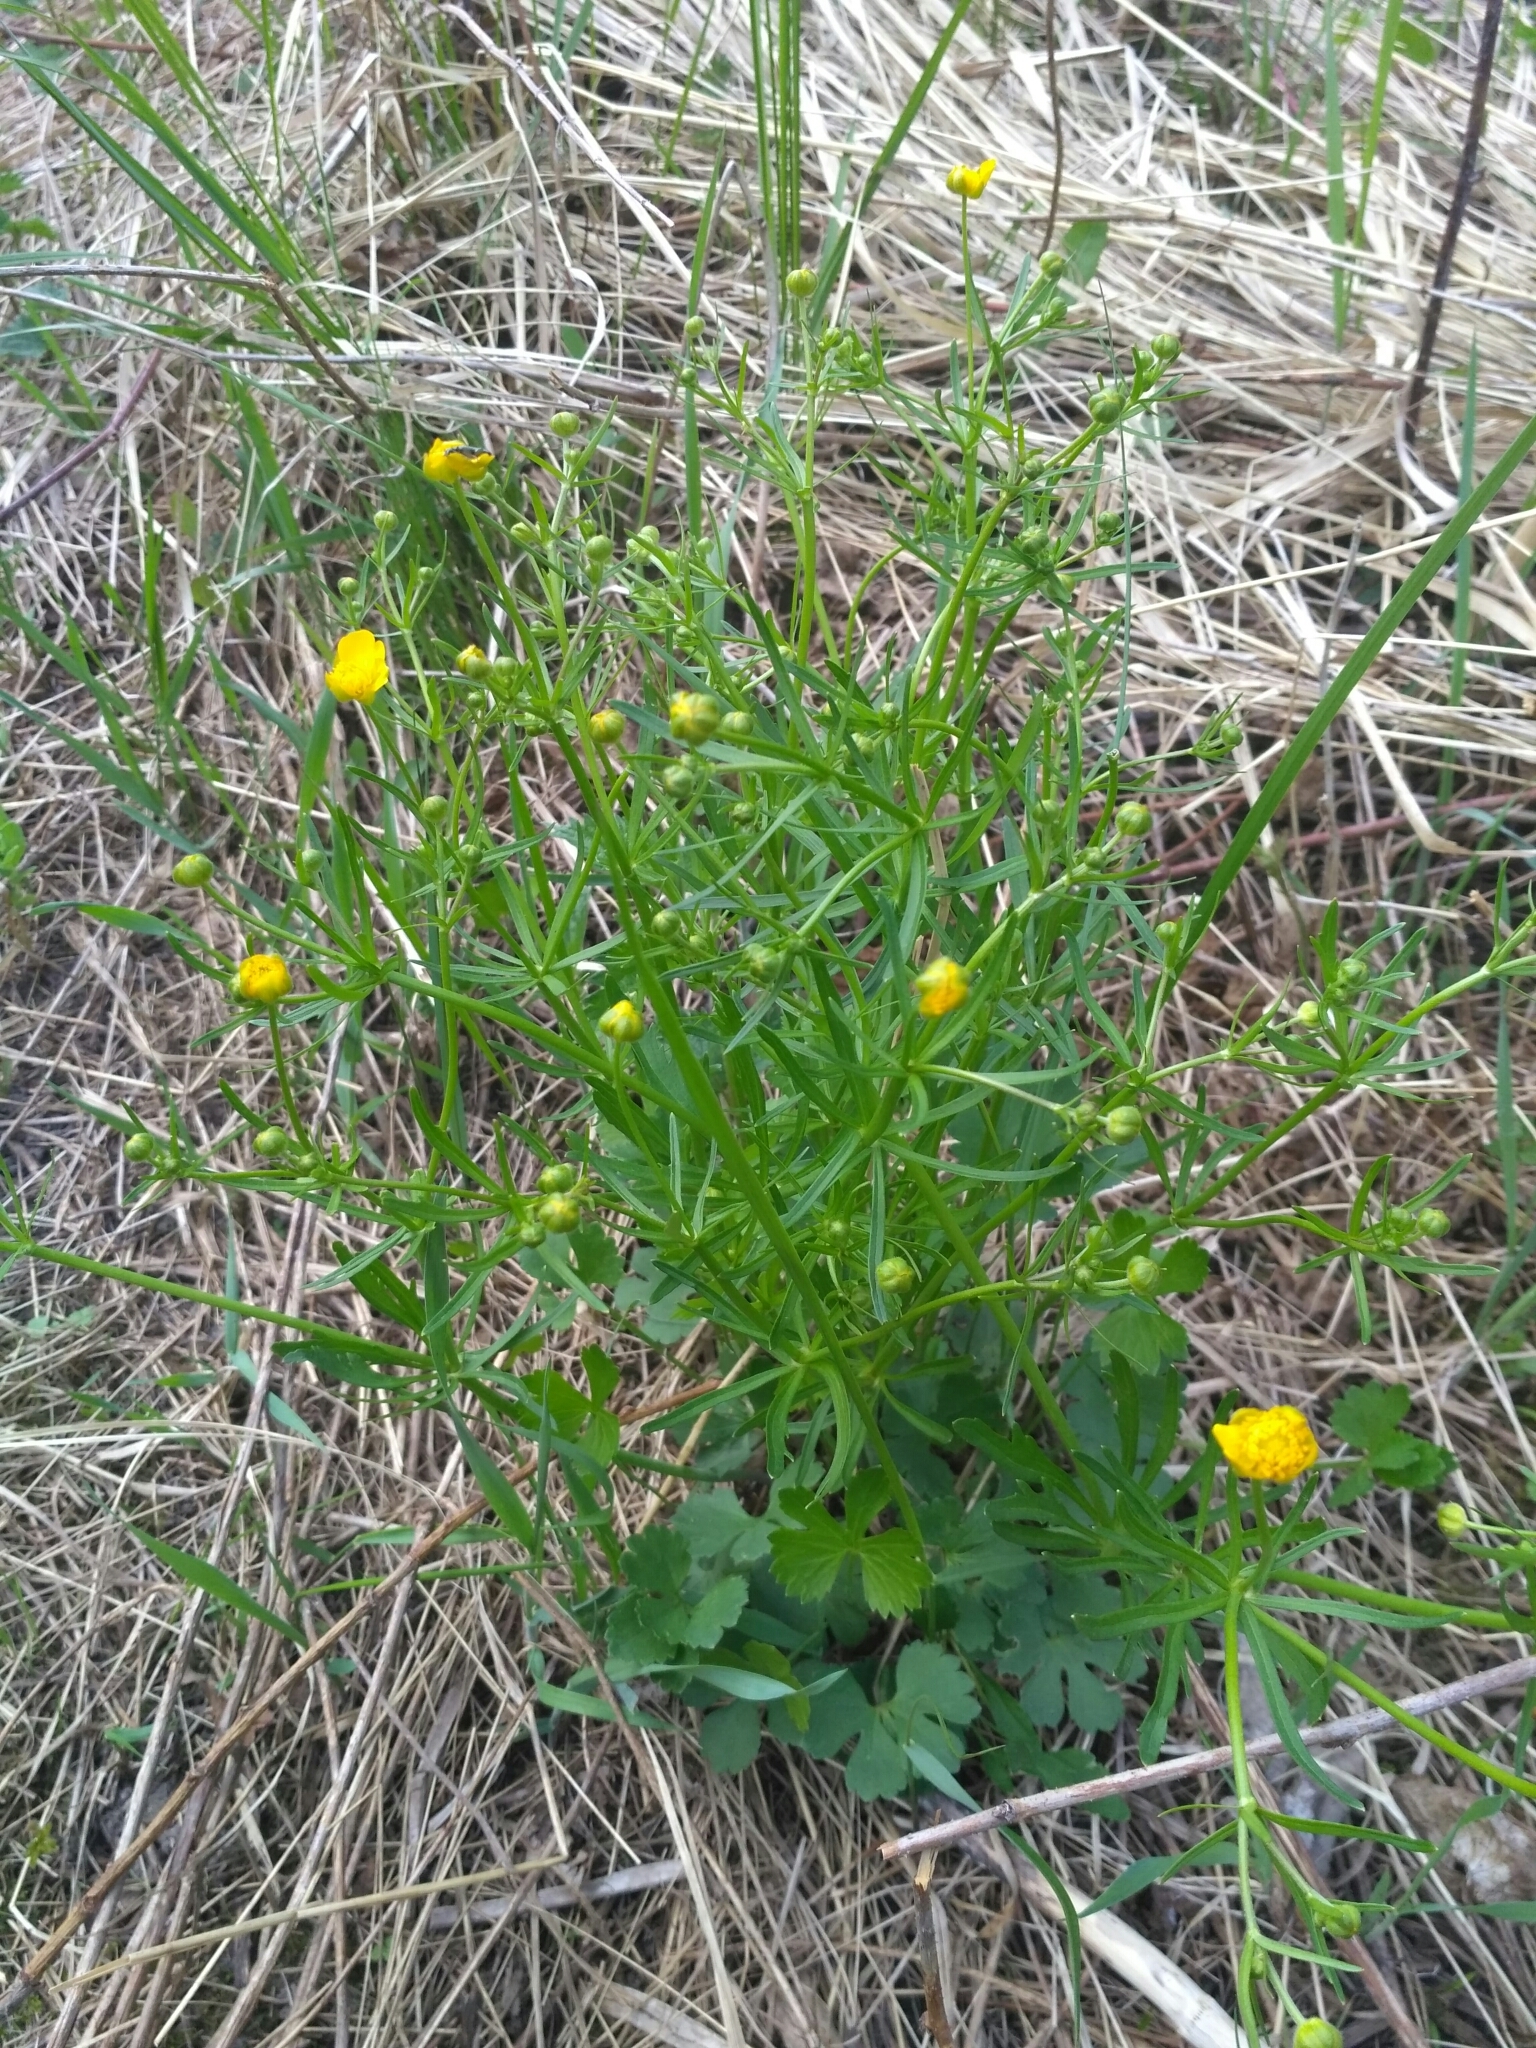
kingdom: Plantae
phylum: Tracheophyta
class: Magnoliopsida
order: Ranunculales
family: Ranunculaceae
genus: Ranunculus
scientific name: Ranunculus auricomus
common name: Goldilocks buttercup
